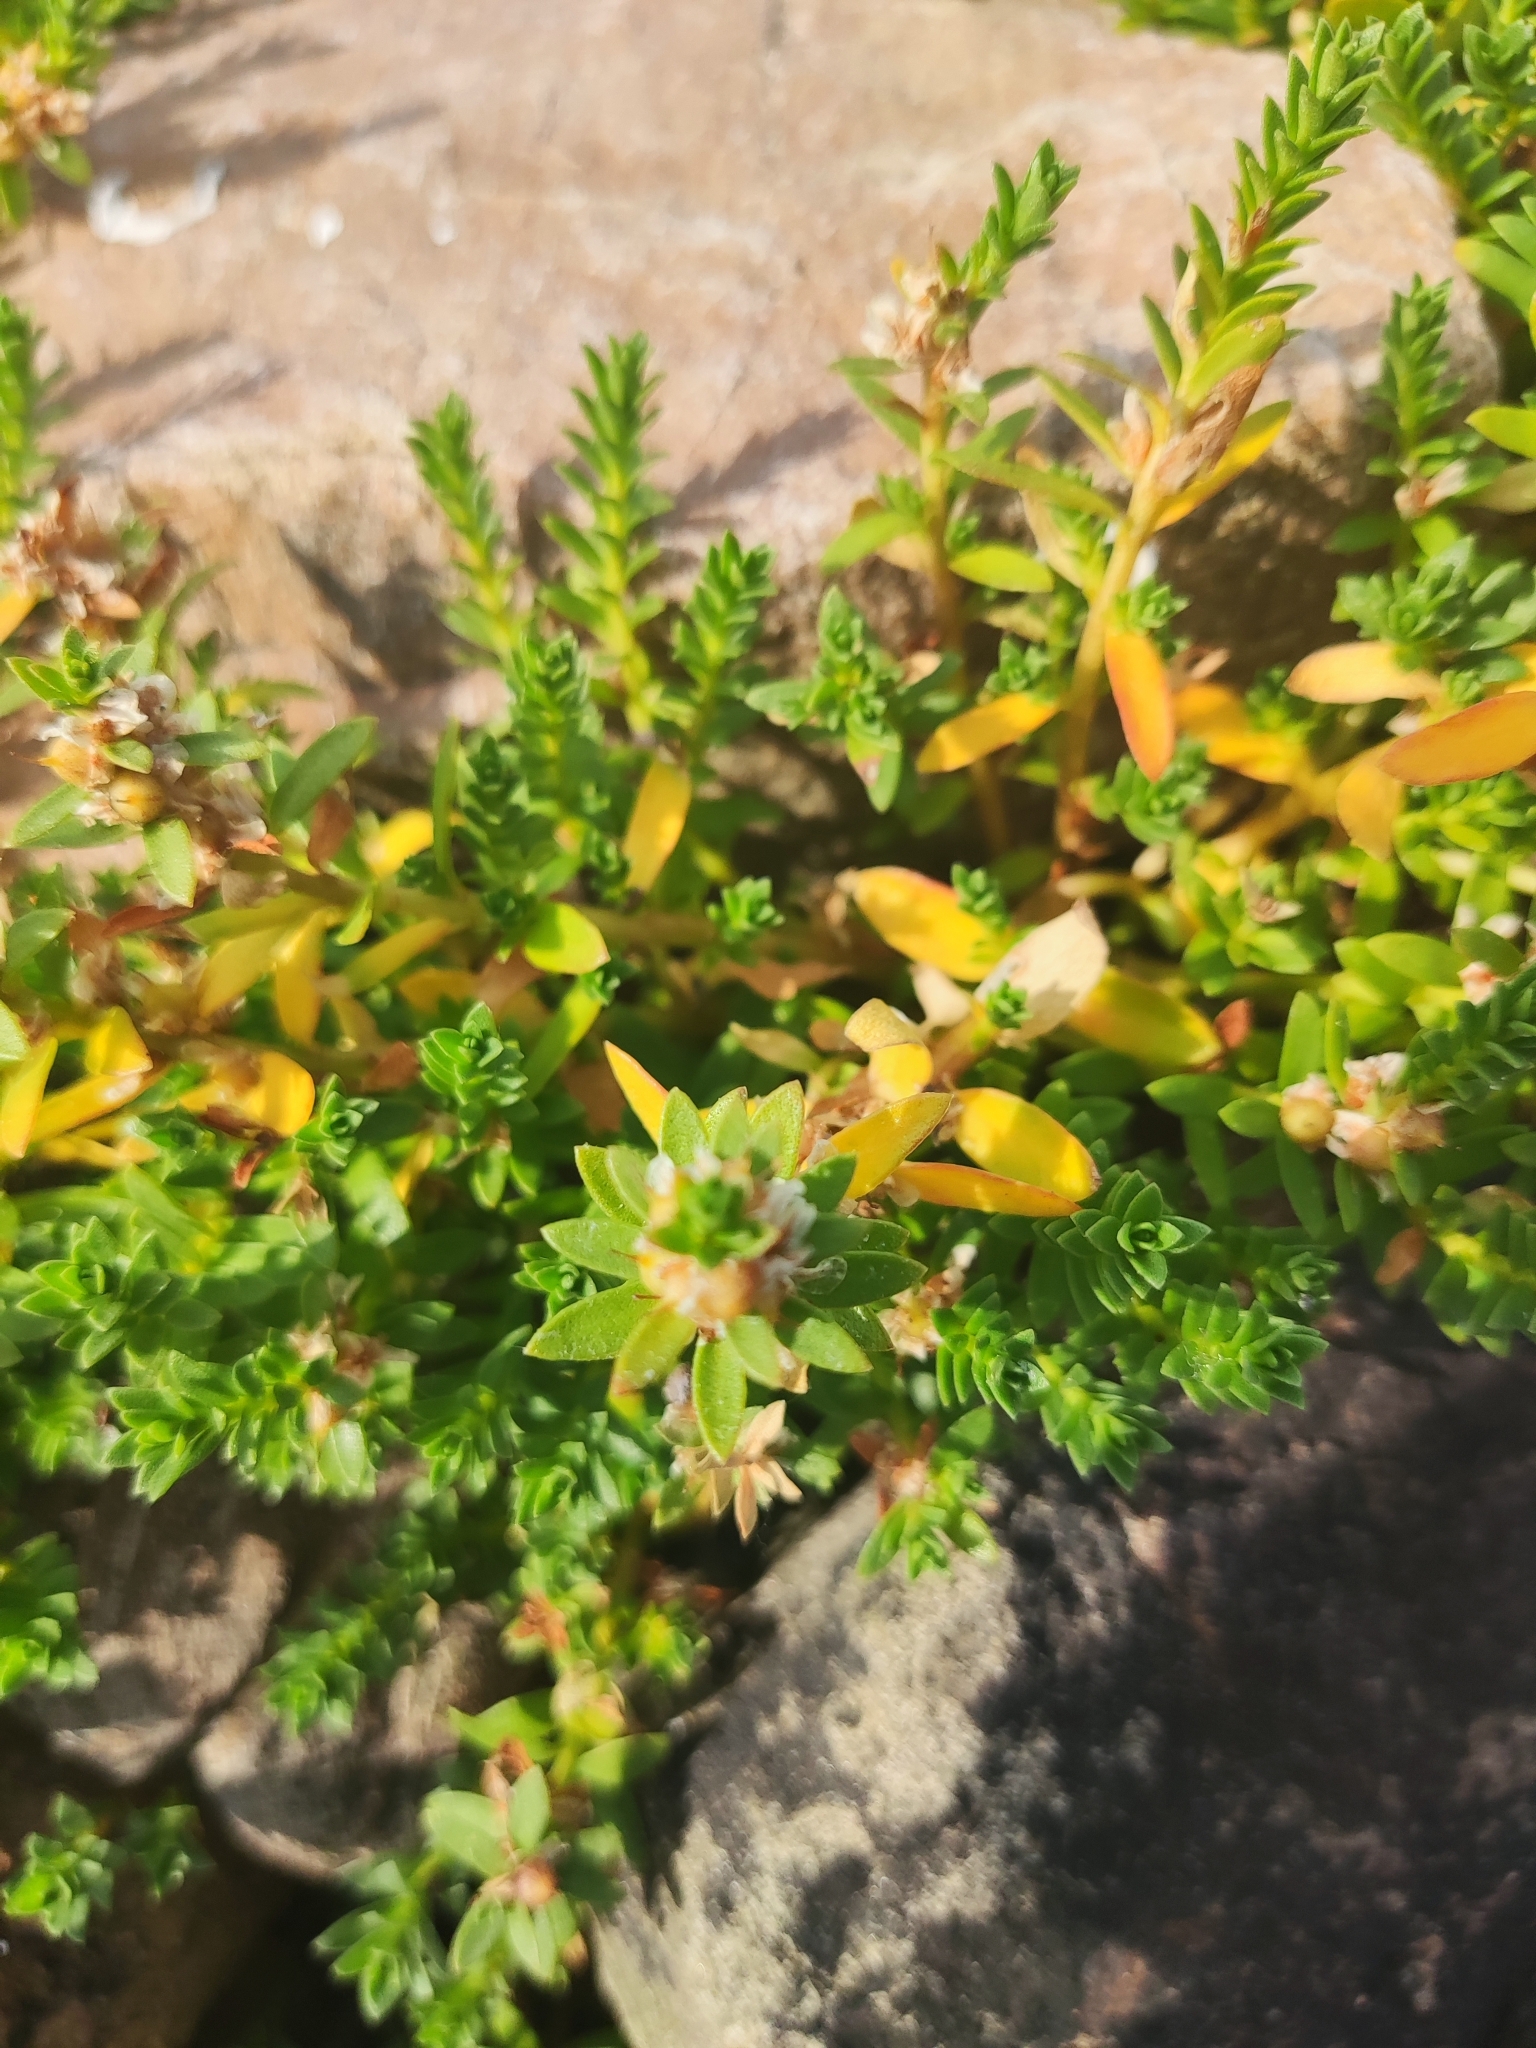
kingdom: Plantae
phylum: Tracheophyta
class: Magnoliopsida
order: Ericales
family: Primulaceae
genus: Lysimachia
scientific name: Lysimachia maritima
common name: Sea milkwort
